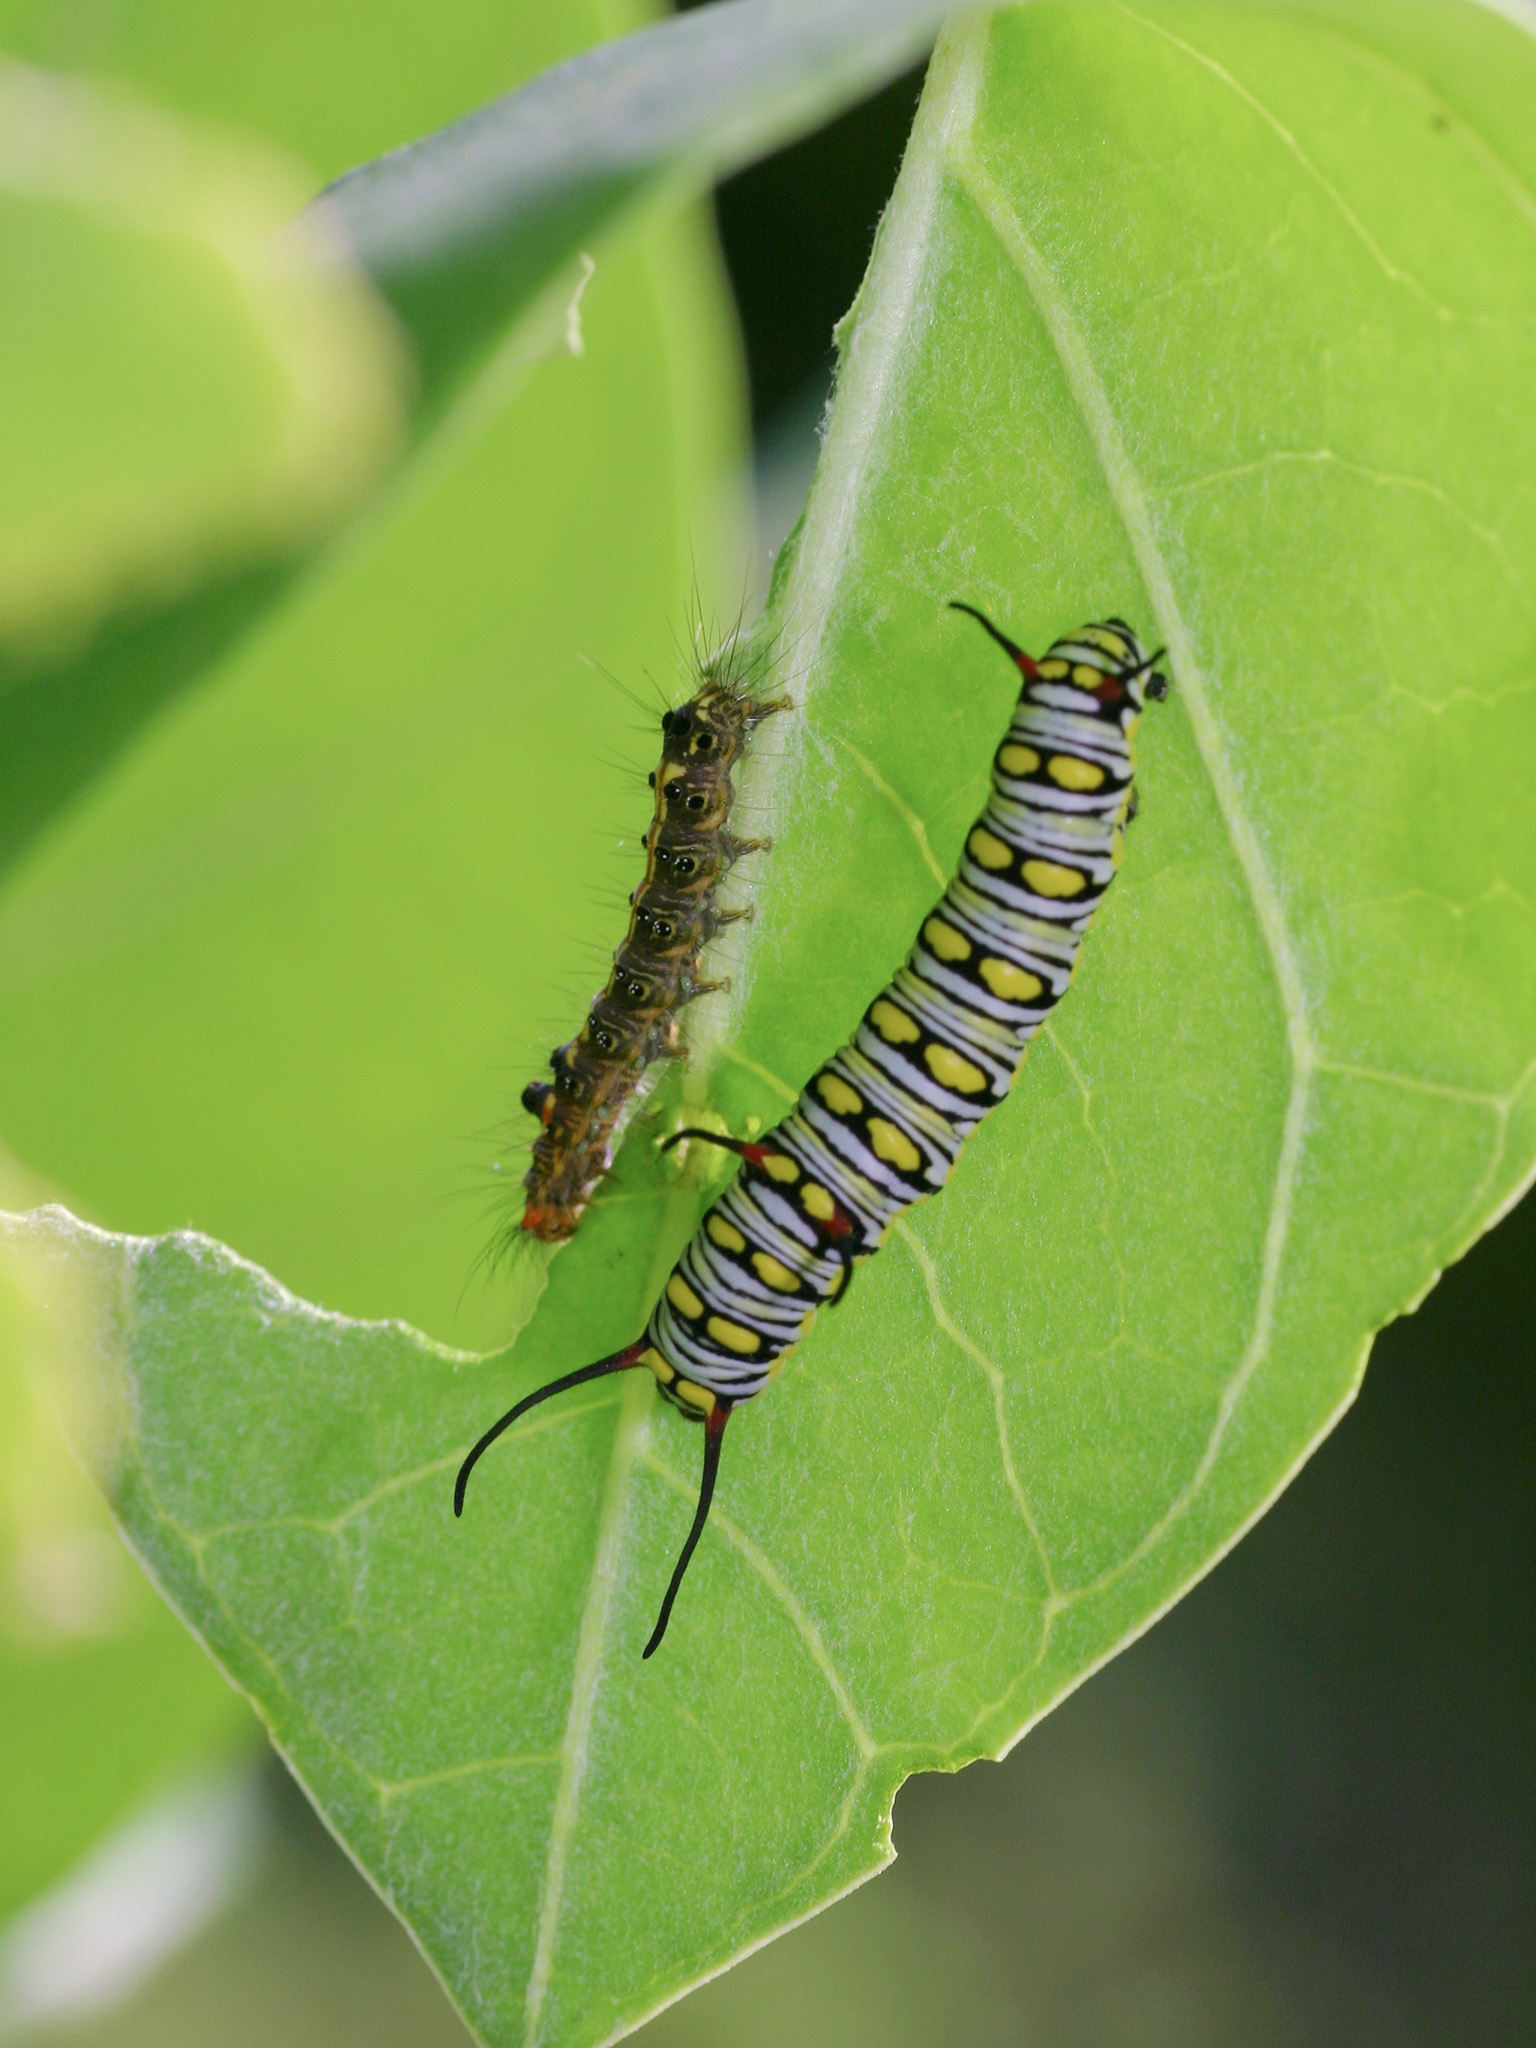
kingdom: Animalia
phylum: Arthropoda
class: Insecta
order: Lepidoptera
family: Nymphalidae
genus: Danaus
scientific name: Danaus chrysippus
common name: Plain tiger
